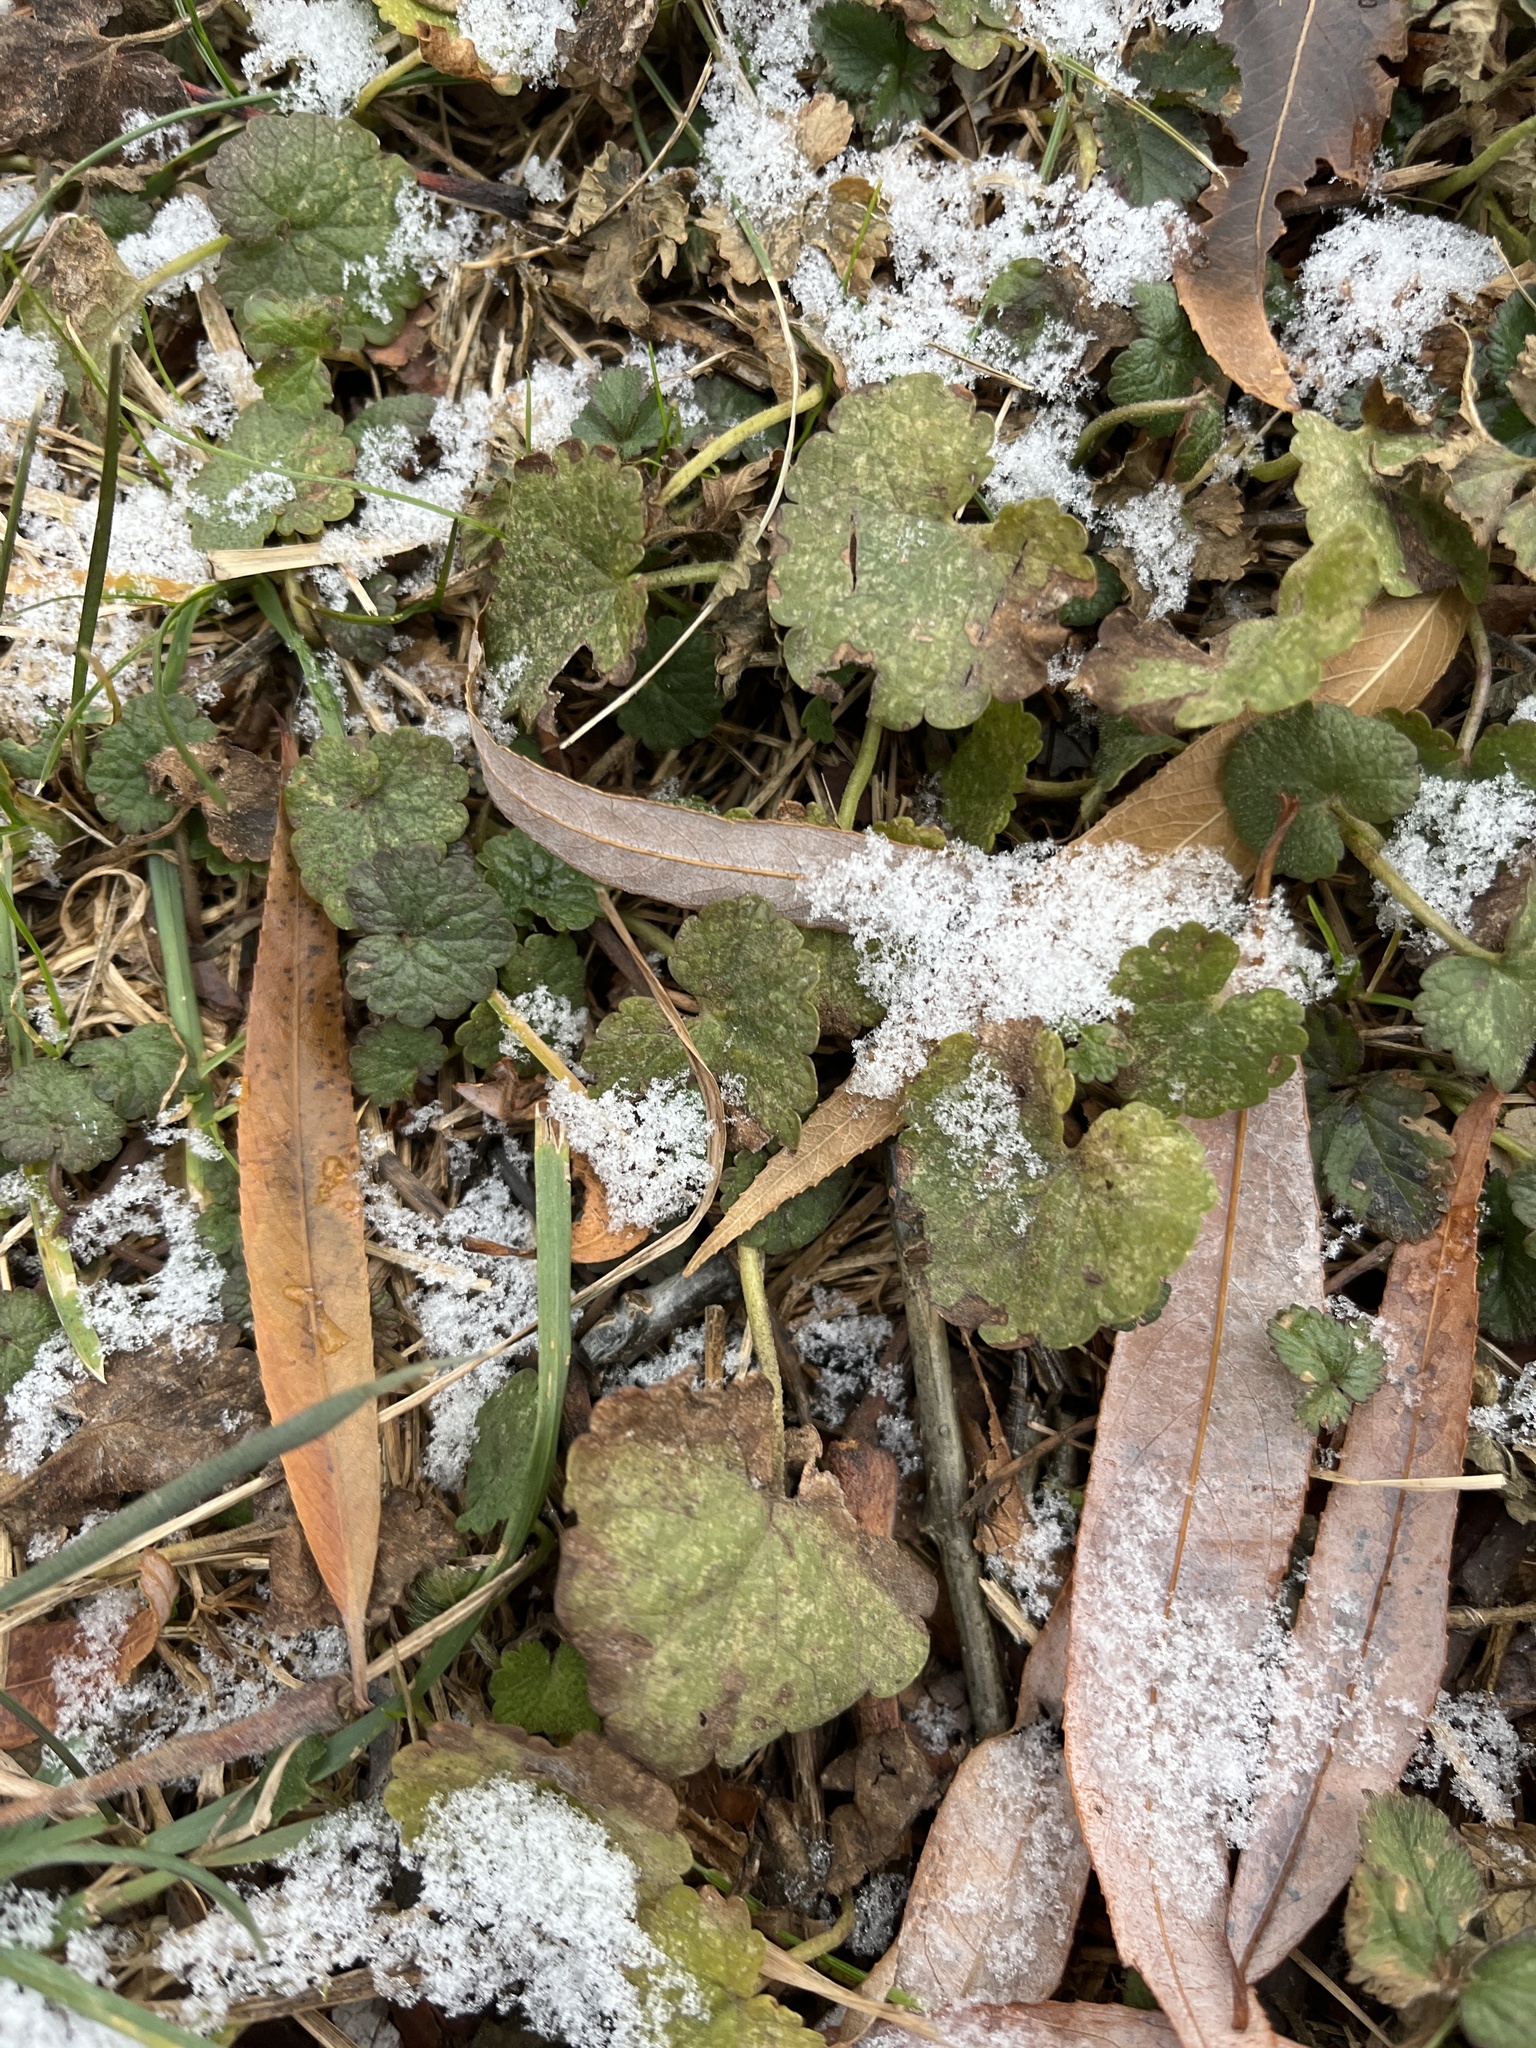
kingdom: Plantae
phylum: Tracheophyta
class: Magnoliopsida
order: Brassicales
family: Brassicaceae
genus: Alliaria
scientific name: Alliaria petiolata
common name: Garlic mustard
